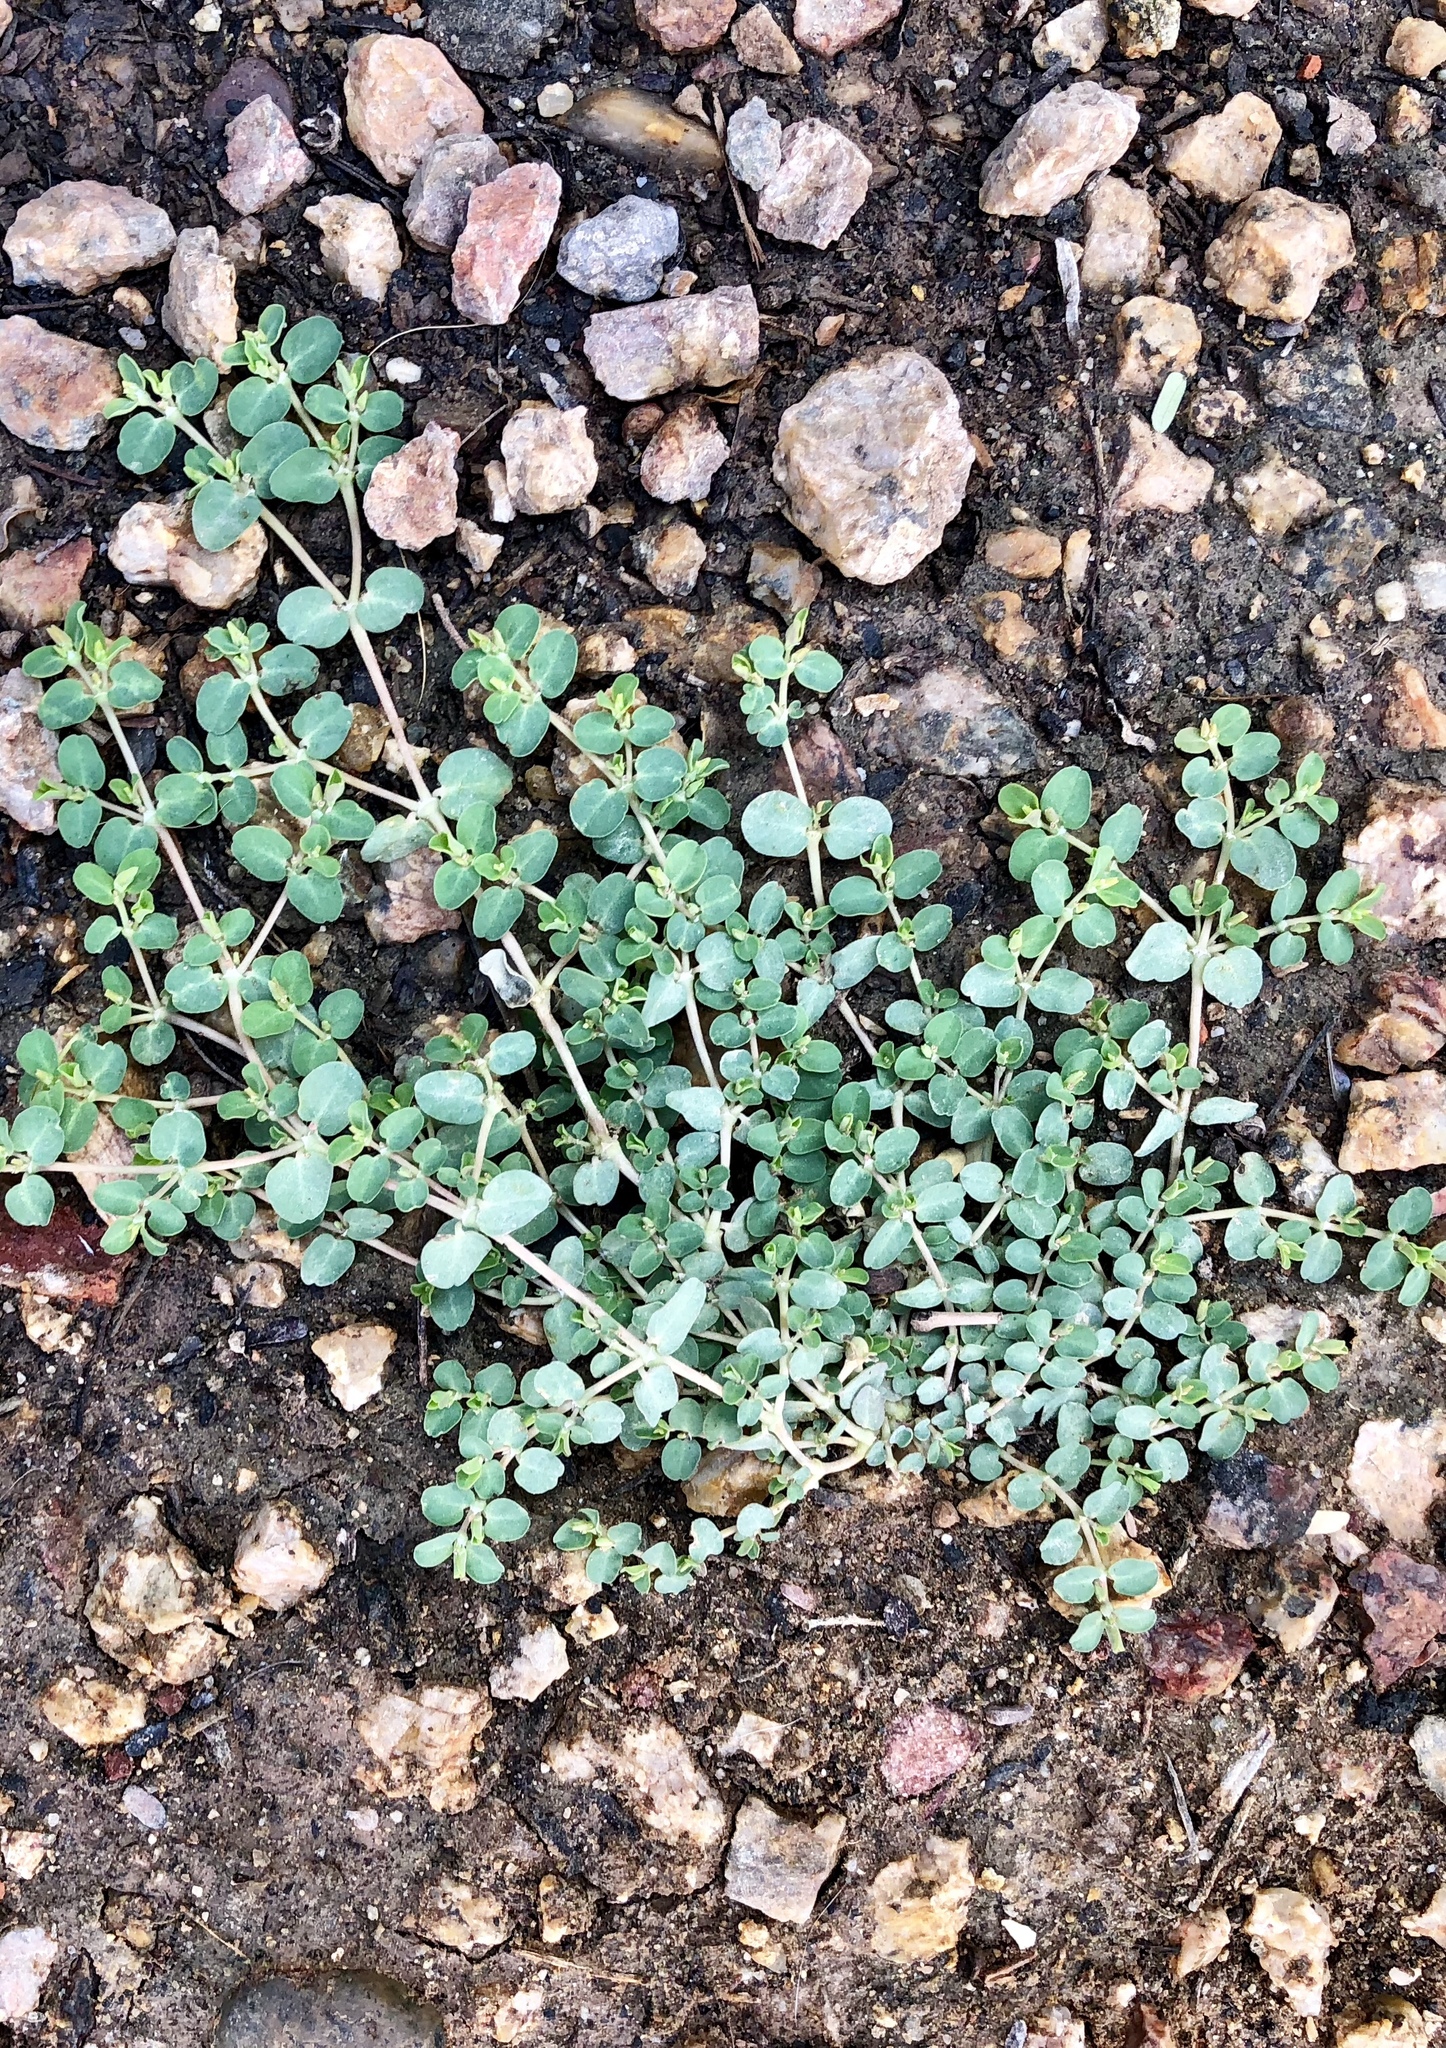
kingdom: Plantae
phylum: Tracheophyta
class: Magnoliopsida
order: Malpighiales
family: Euphorbiaceae
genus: Euphorbia
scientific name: Euphorbia serpens
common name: Matted sandmat
